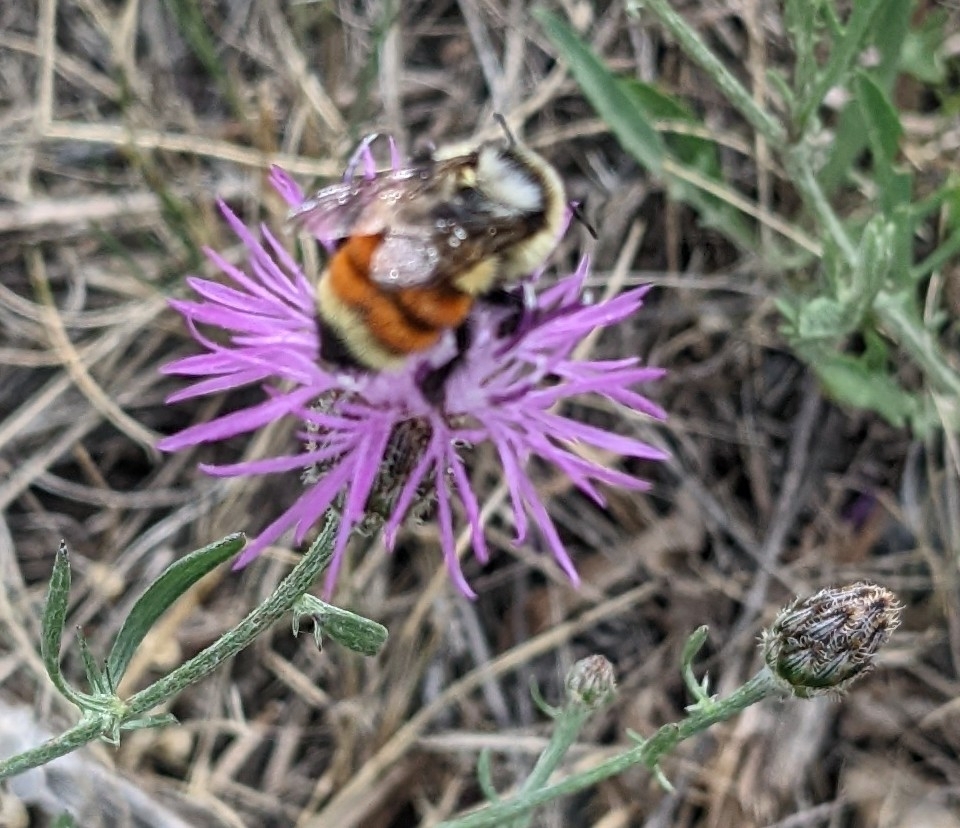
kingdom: Animalia
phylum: Arthropoda
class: Insecta
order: Hymenoptera
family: Apidae
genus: Bombus
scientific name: Bombus huntii
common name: Hunt bumble bee
